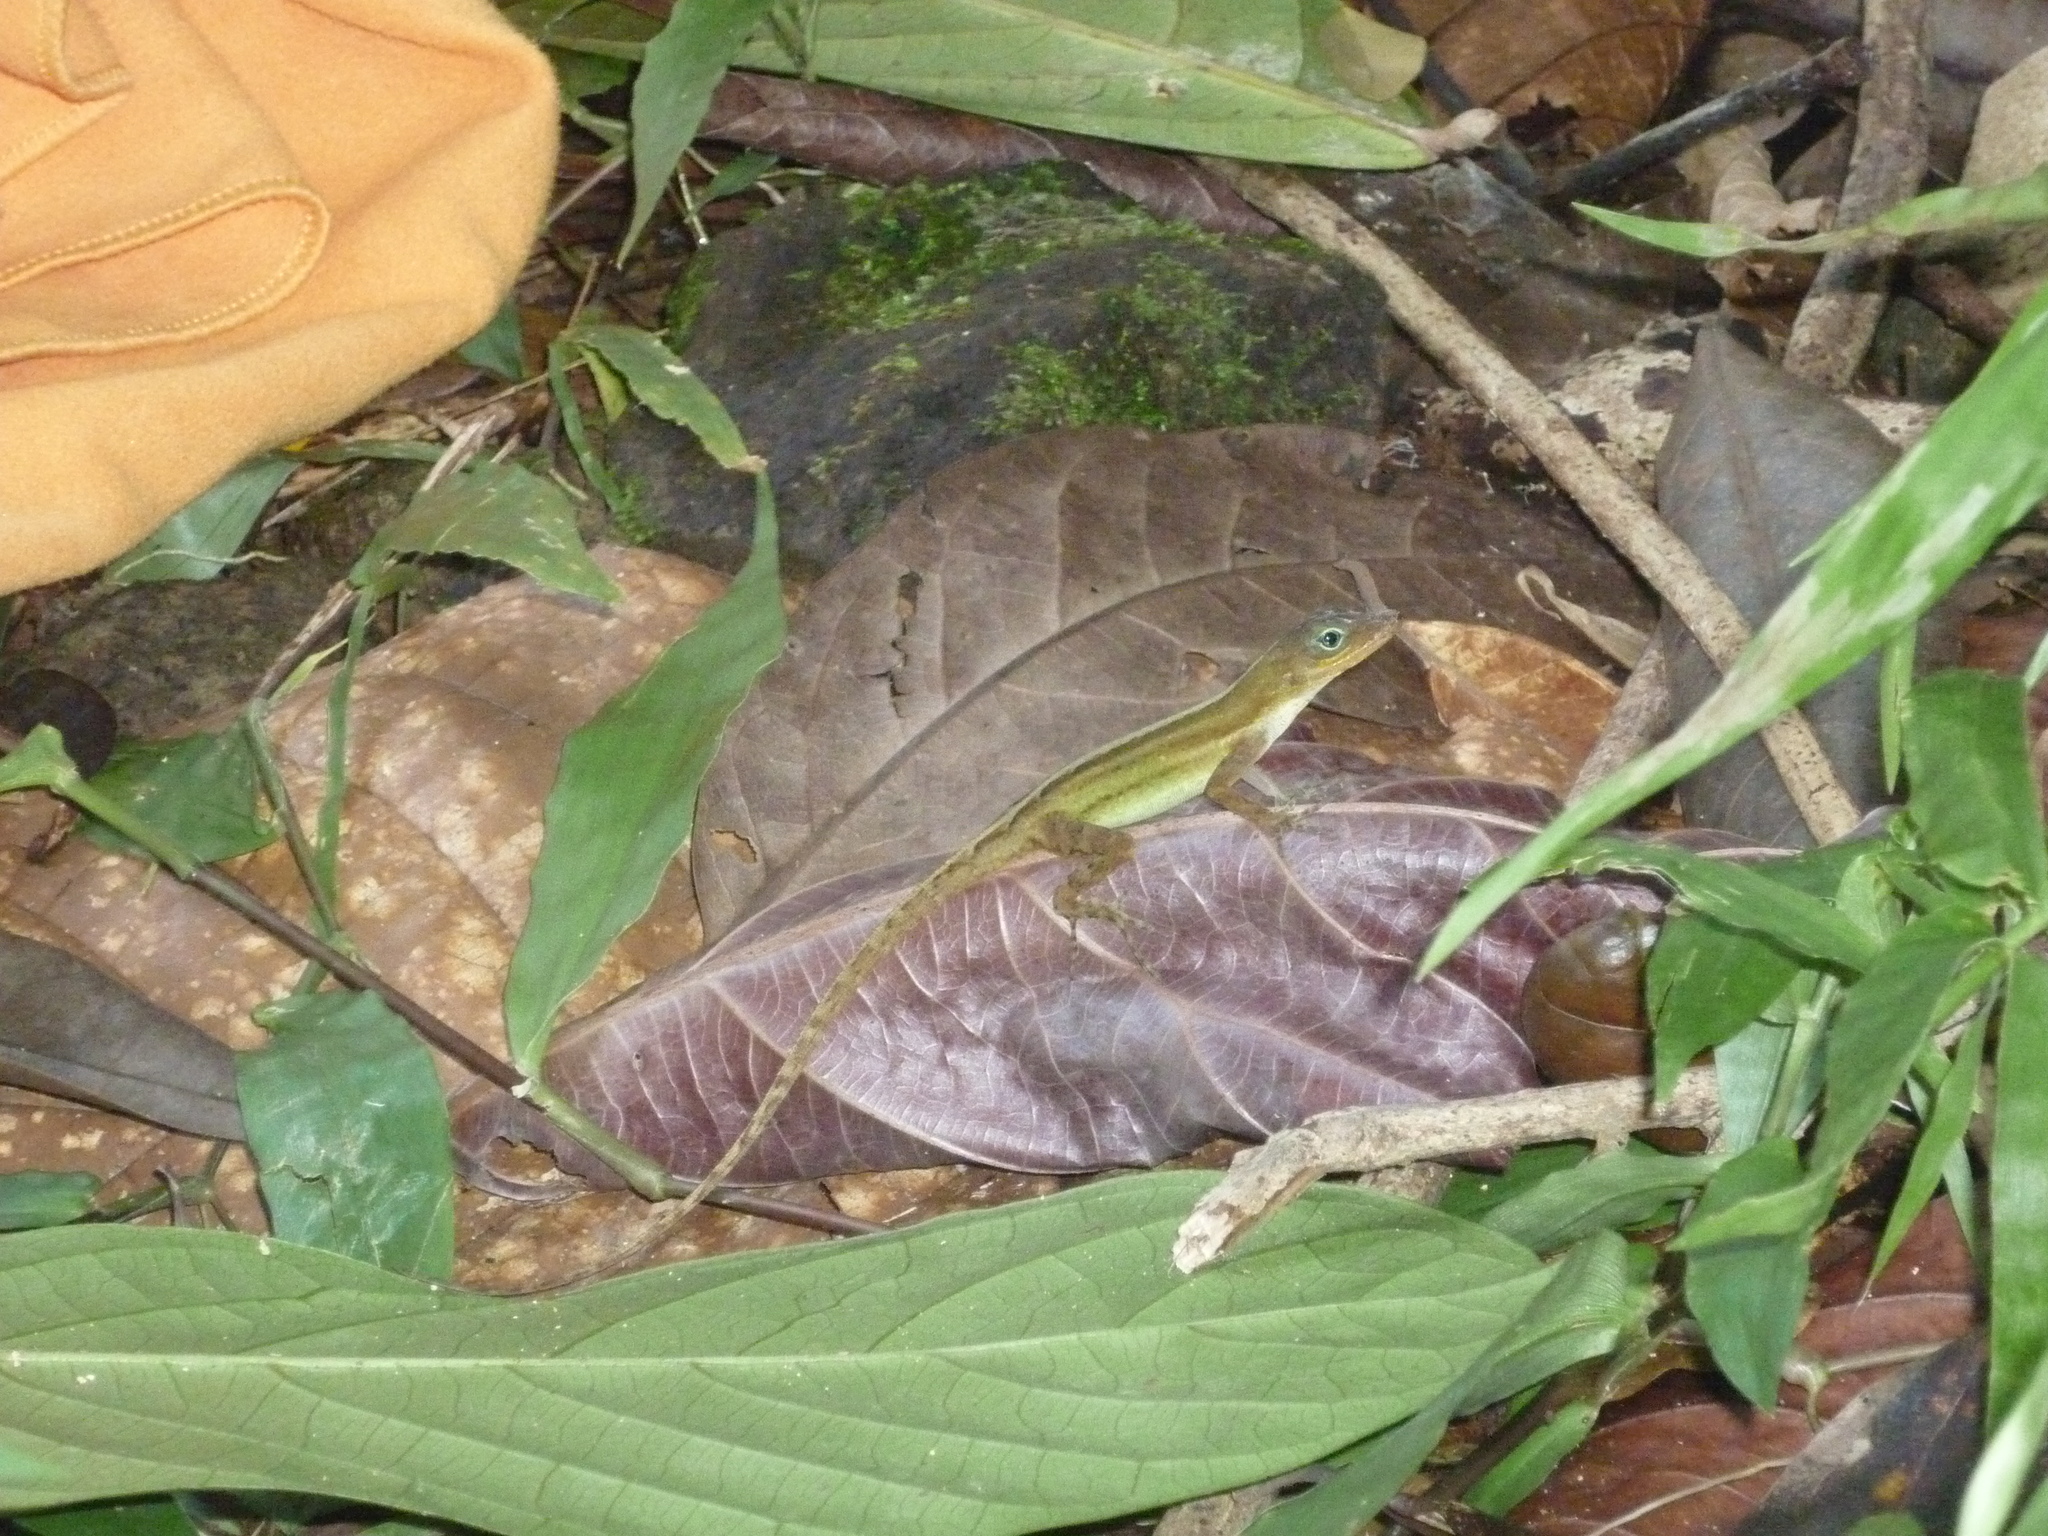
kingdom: Animalia
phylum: Chordata
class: Squamata
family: Dactyloidae
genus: Anolis
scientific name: Anolis oculatus
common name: Dominica anole
